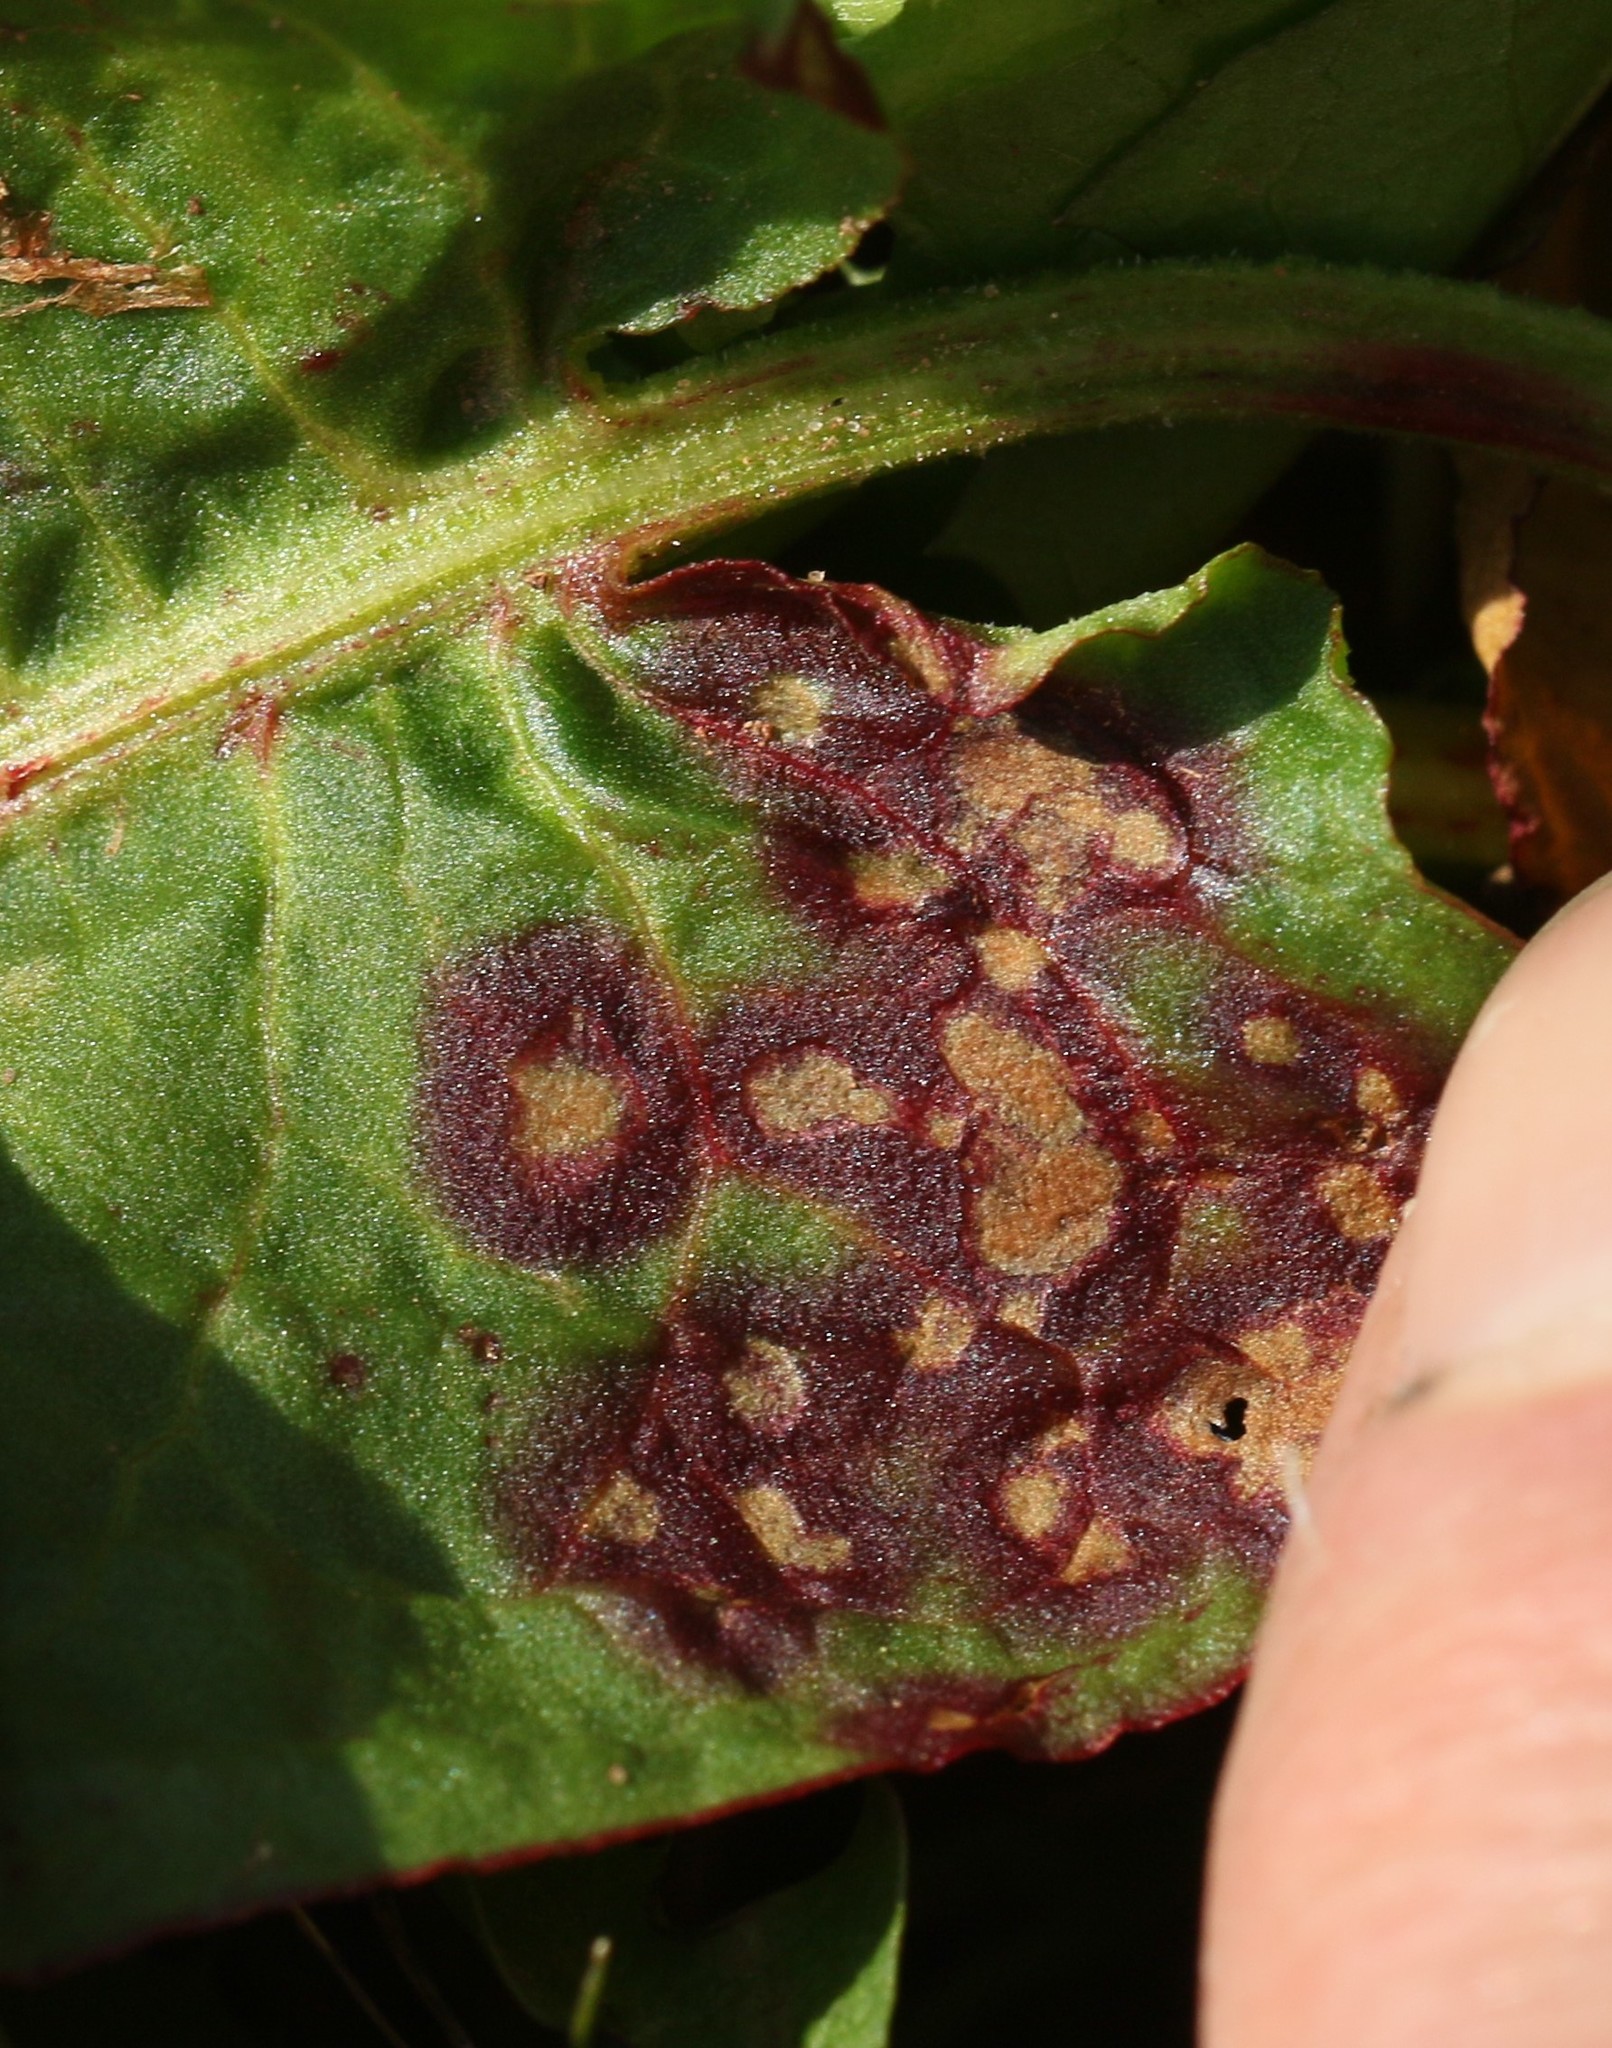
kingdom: Fungi
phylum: Ascomycota
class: Dothideomycetes
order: Mycosphaerellales
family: Mycosphaerellaceae
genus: Ramularia
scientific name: Ramularia rubella
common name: Red dock spot
